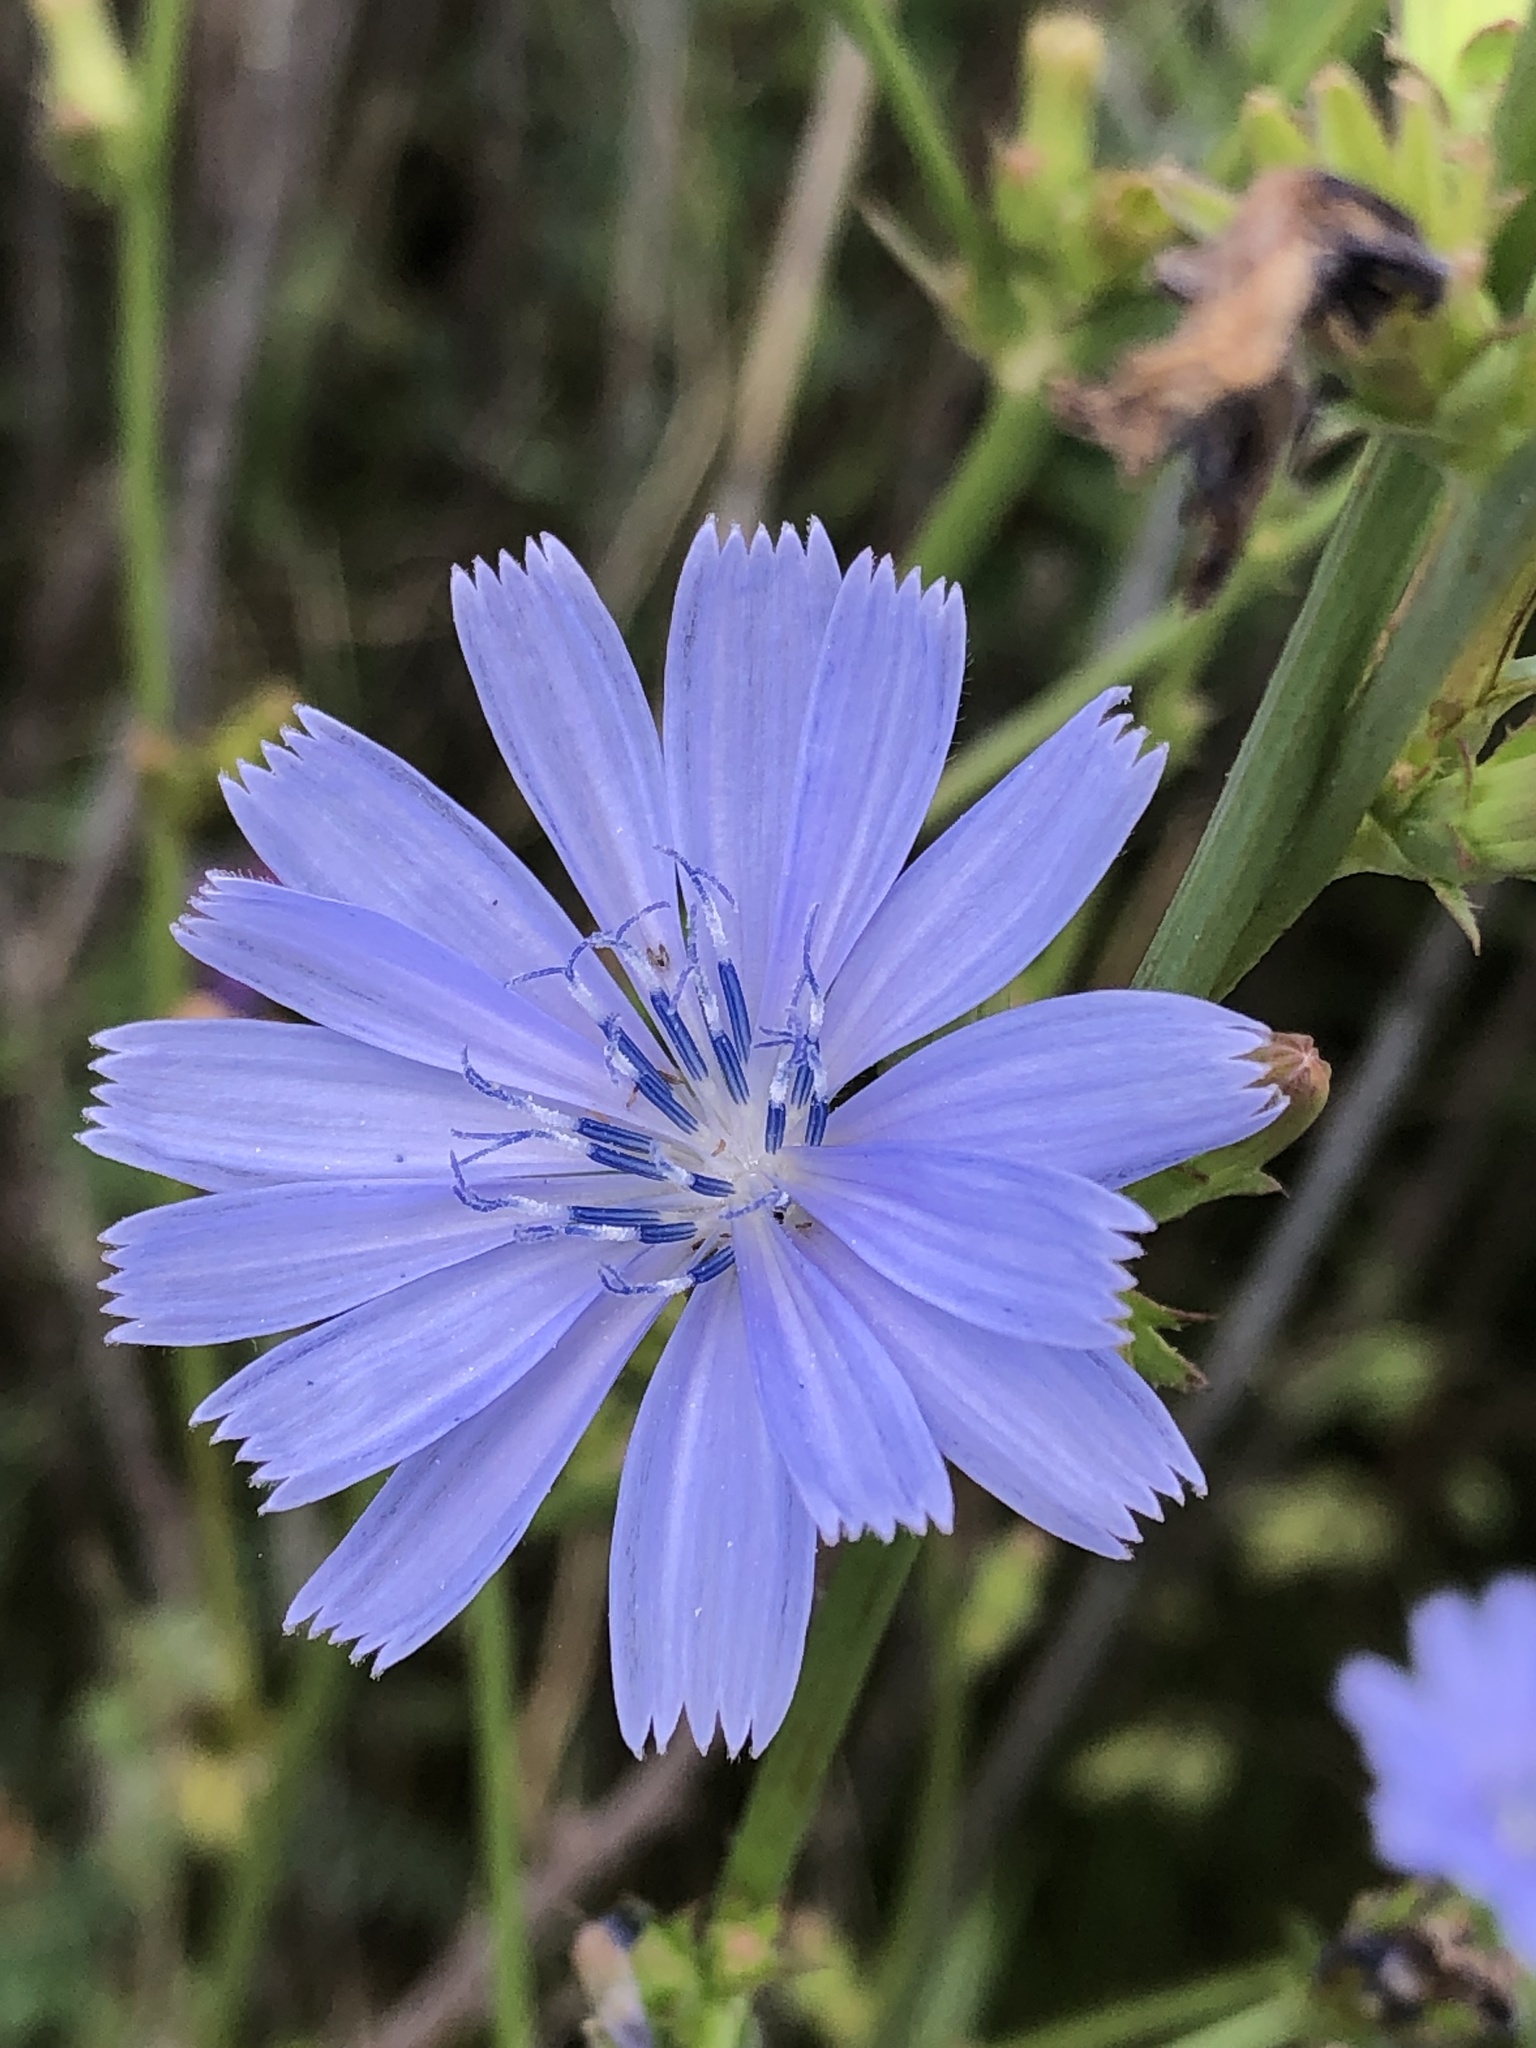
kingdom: Plantae
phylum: Tracheophyta
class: Magnoliopsida
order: Asterales
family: Asteraceae
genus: Cichorium
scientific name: Cichorium intybus
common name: Chicory
